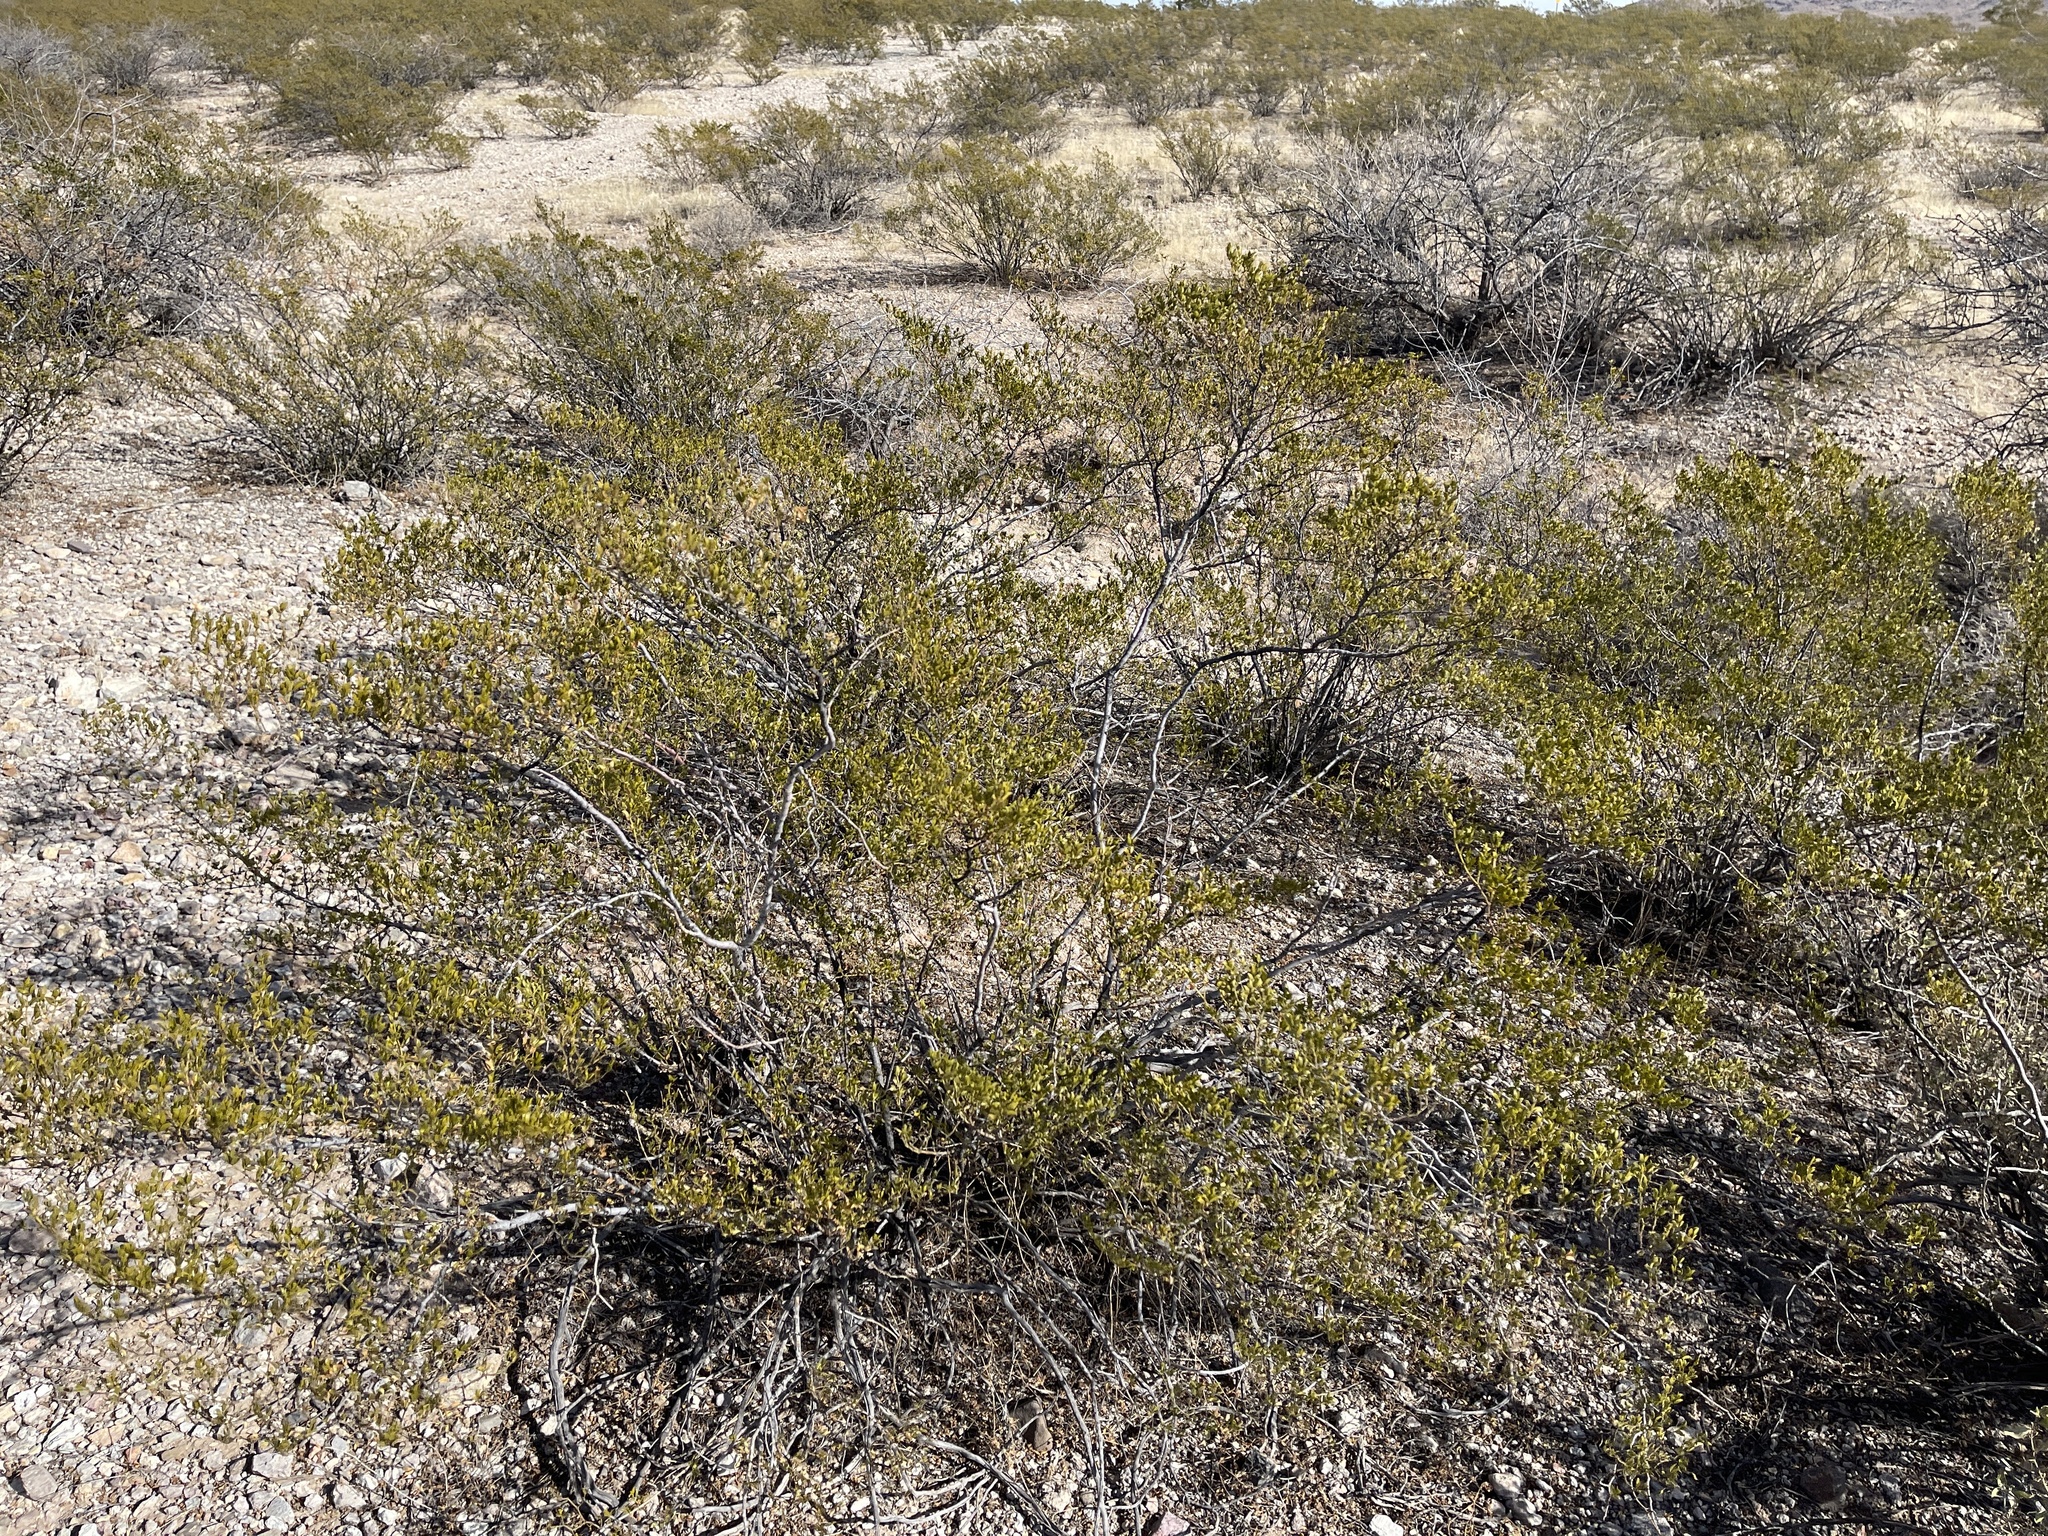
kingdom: Plantae
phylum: Tracheophyta
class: Magnoliopsida
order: Zygophyllales
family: Zygophyllaceae
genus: Larrea
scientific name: Larrea tridentata
